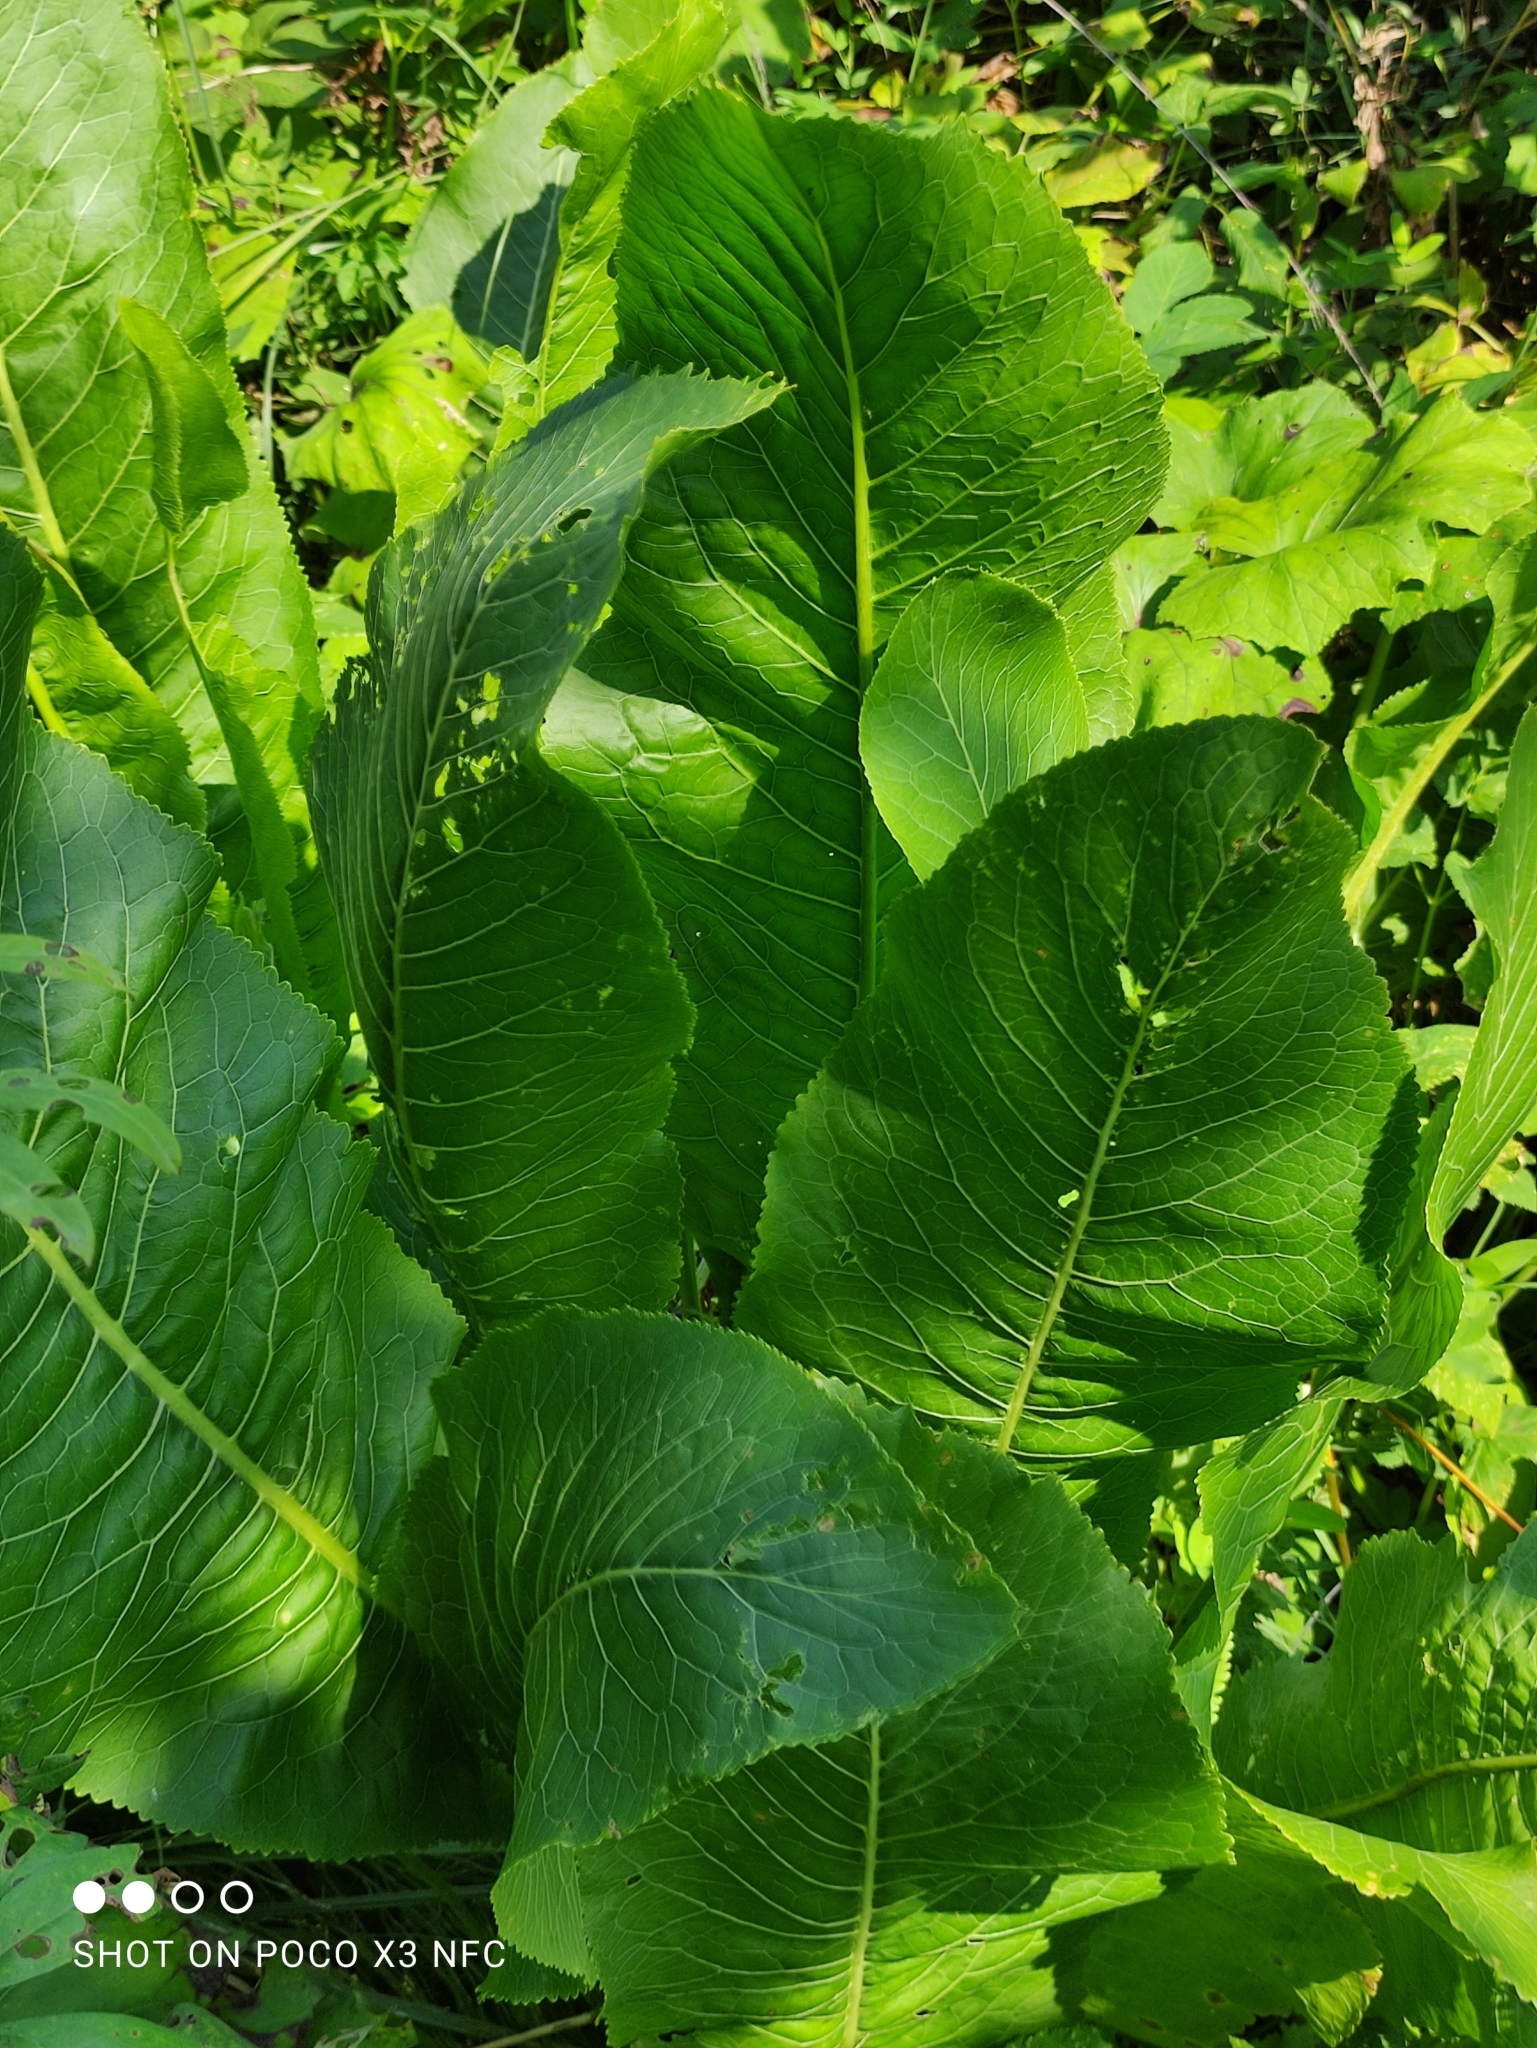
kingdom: Plantae
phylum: Tracheophyta
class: Magnoliopsida
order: Brassicales
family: Brassicaceae
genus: Armoracia
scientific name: Armoracia rusticana
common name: Horseradish
